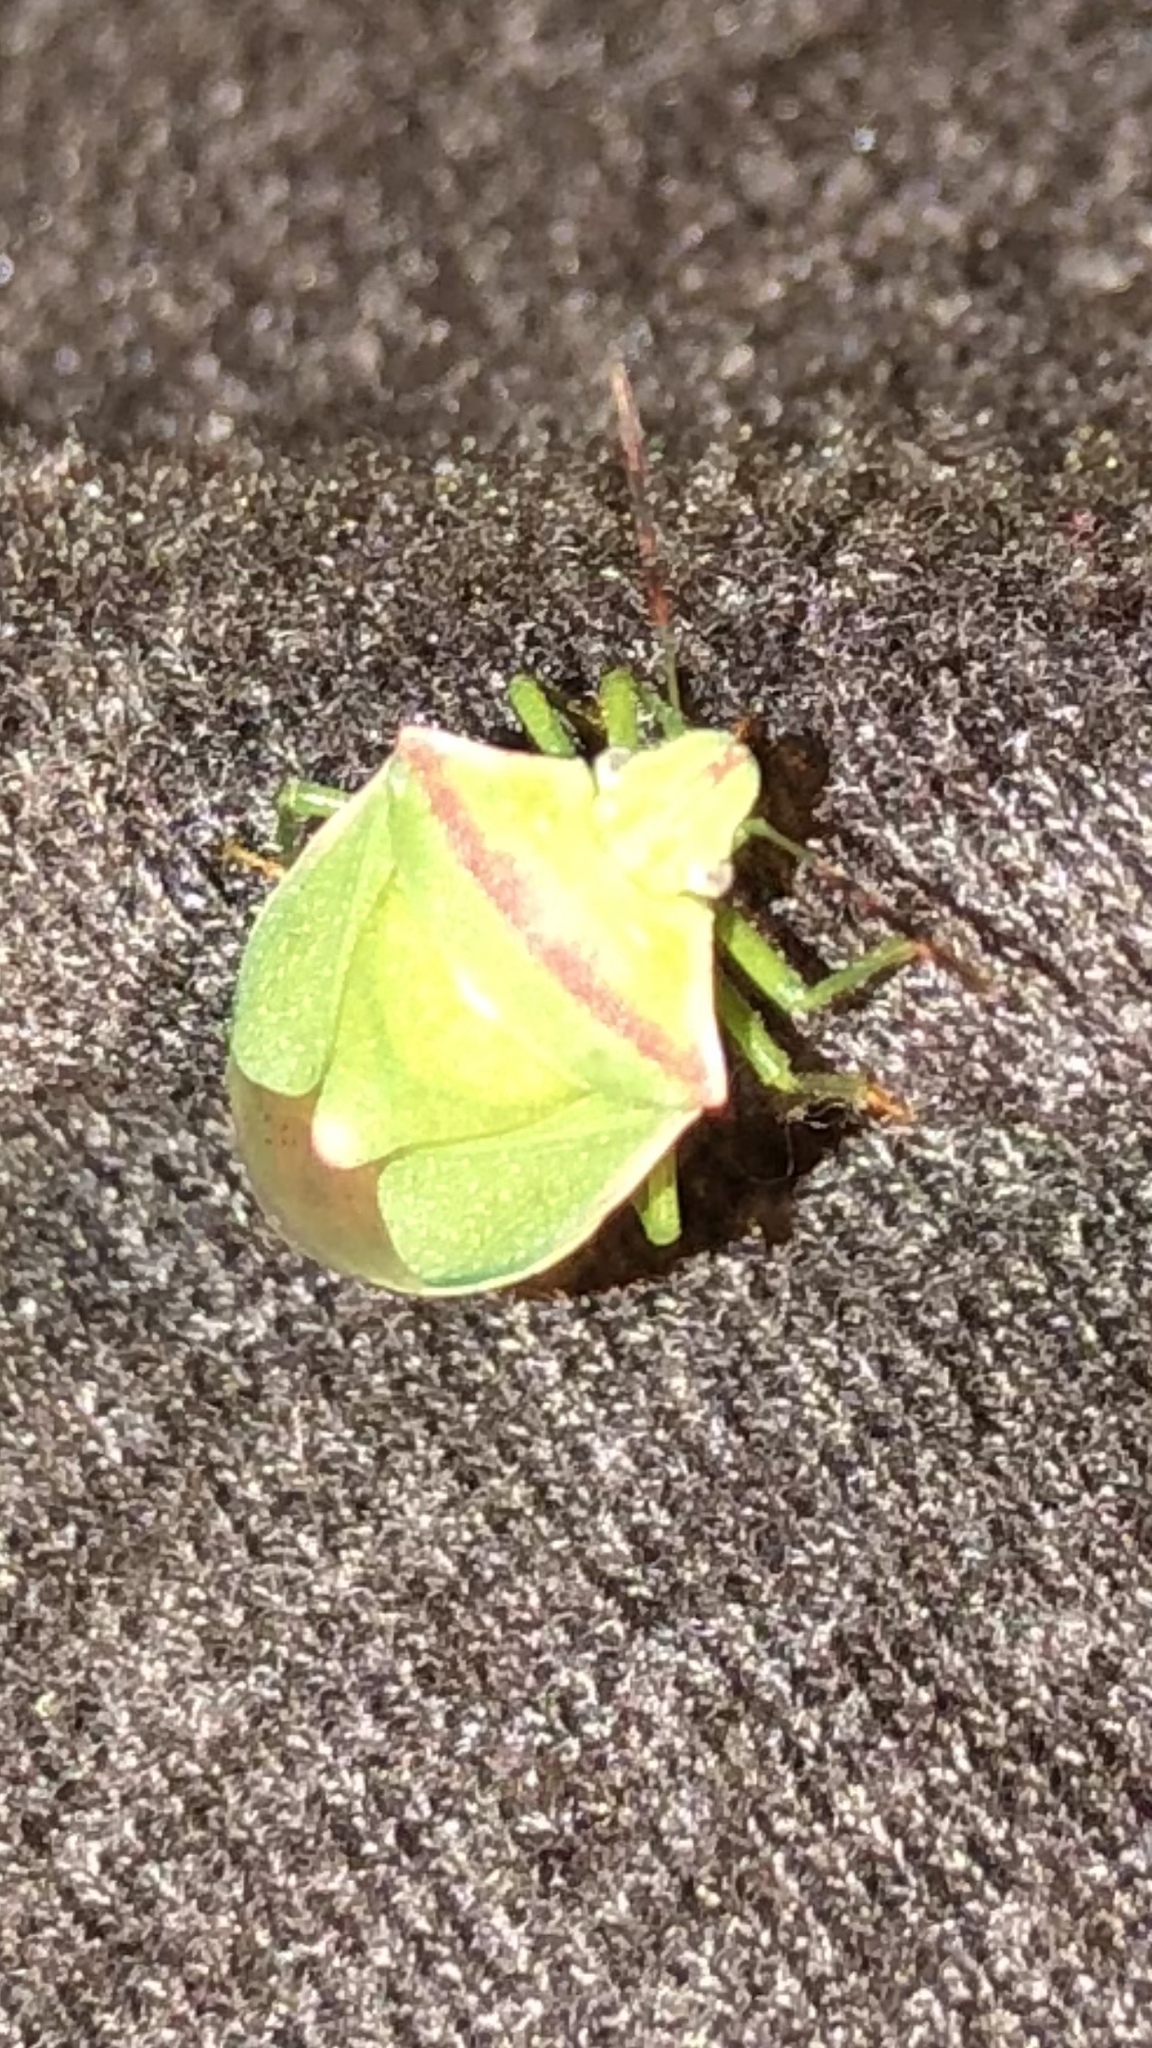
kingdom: Animalia
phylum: Arthropoda
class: Insecta
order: Hemiptera
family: Pentatomidae
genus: Thyanta
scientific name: Thyanta custator
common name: Stink bug
